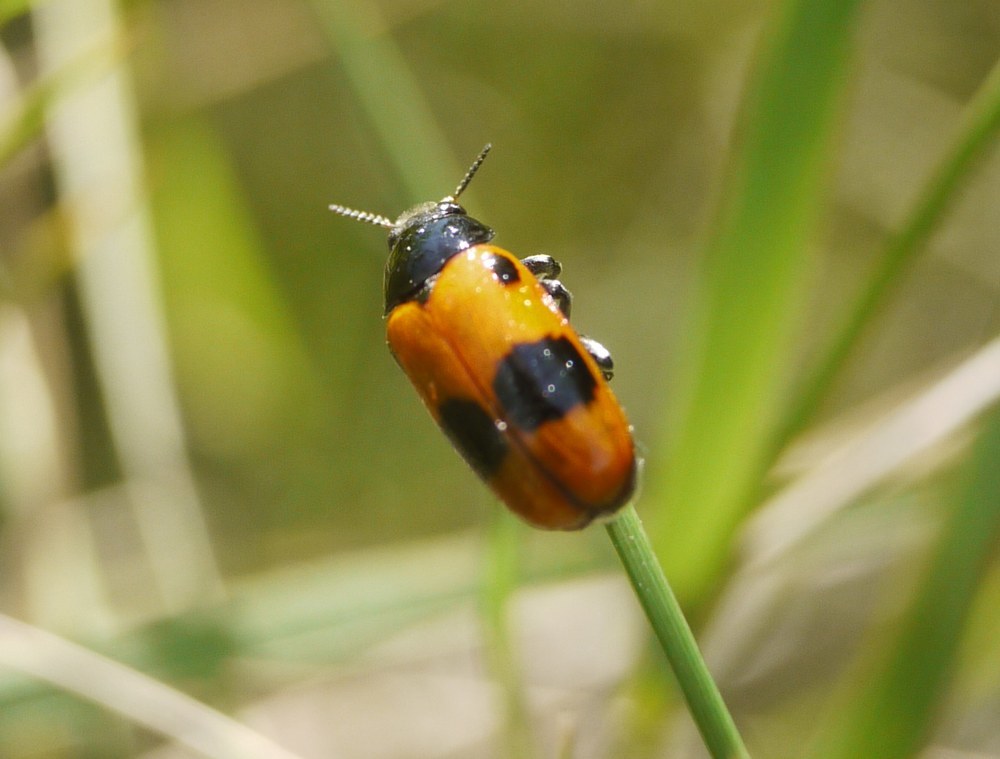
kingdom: Animalia
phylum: Arthropoda
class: Insecta
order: Coleoptera
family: Chrysomelidae
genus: Clytra
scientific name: Clytra laeviuscula
